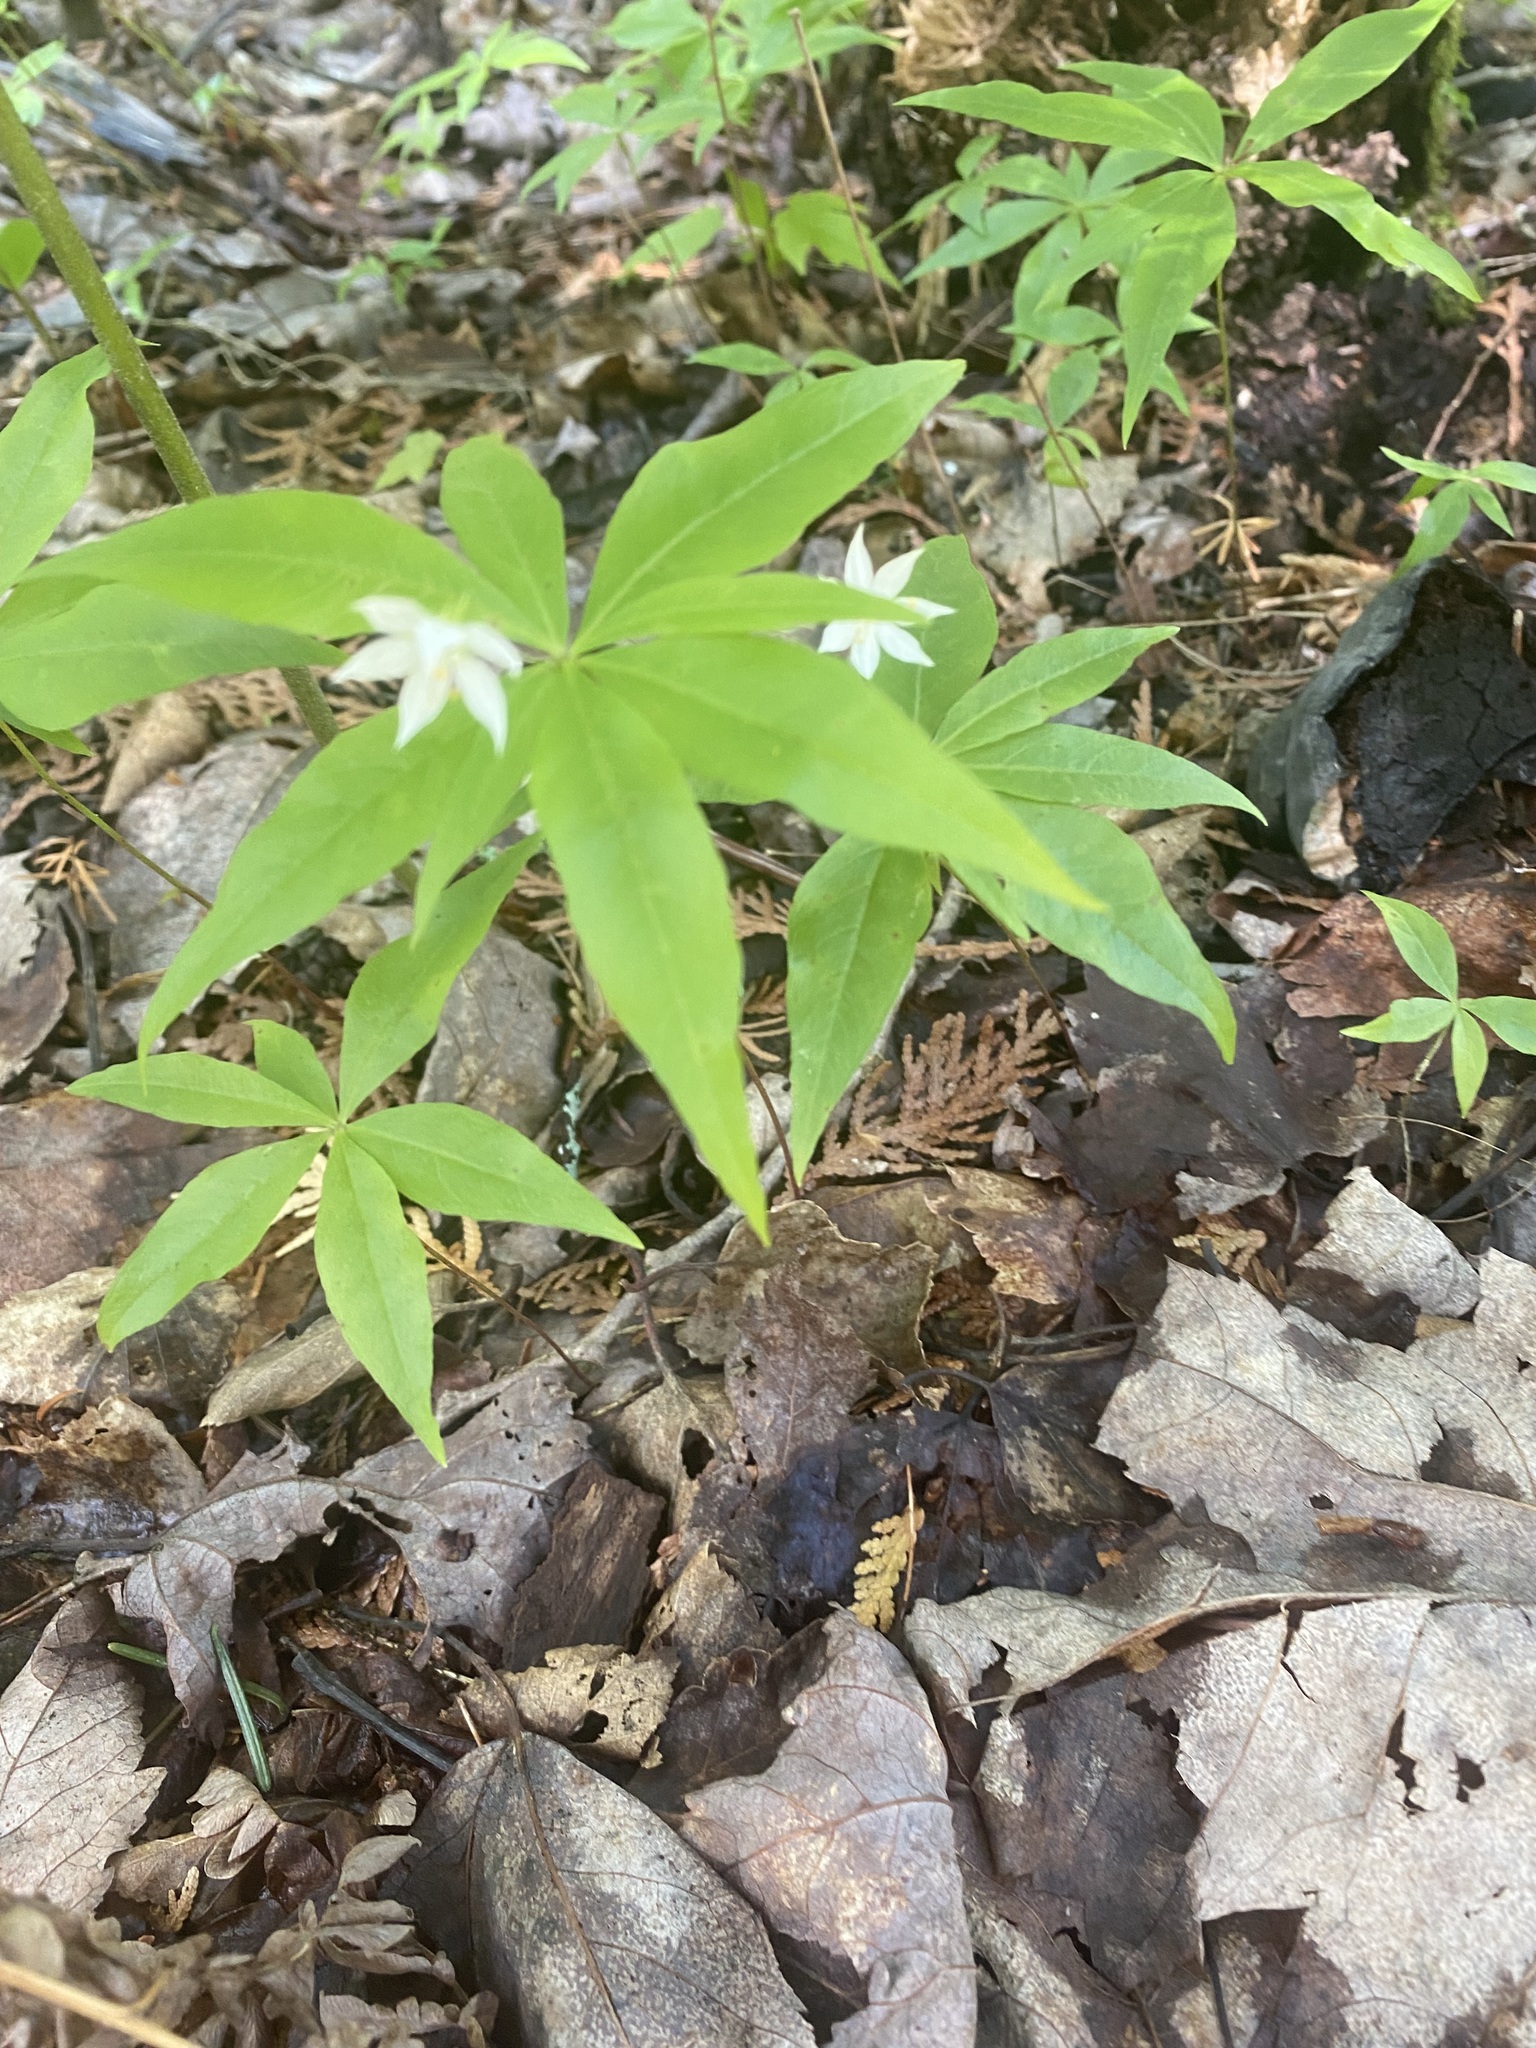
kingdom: Plantae
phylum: Tracheophyta
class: Magnoliopsida
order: Ericales
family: Primulaceae
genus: Lysimachia
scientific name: Lysimachia borealis
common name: American starflower
